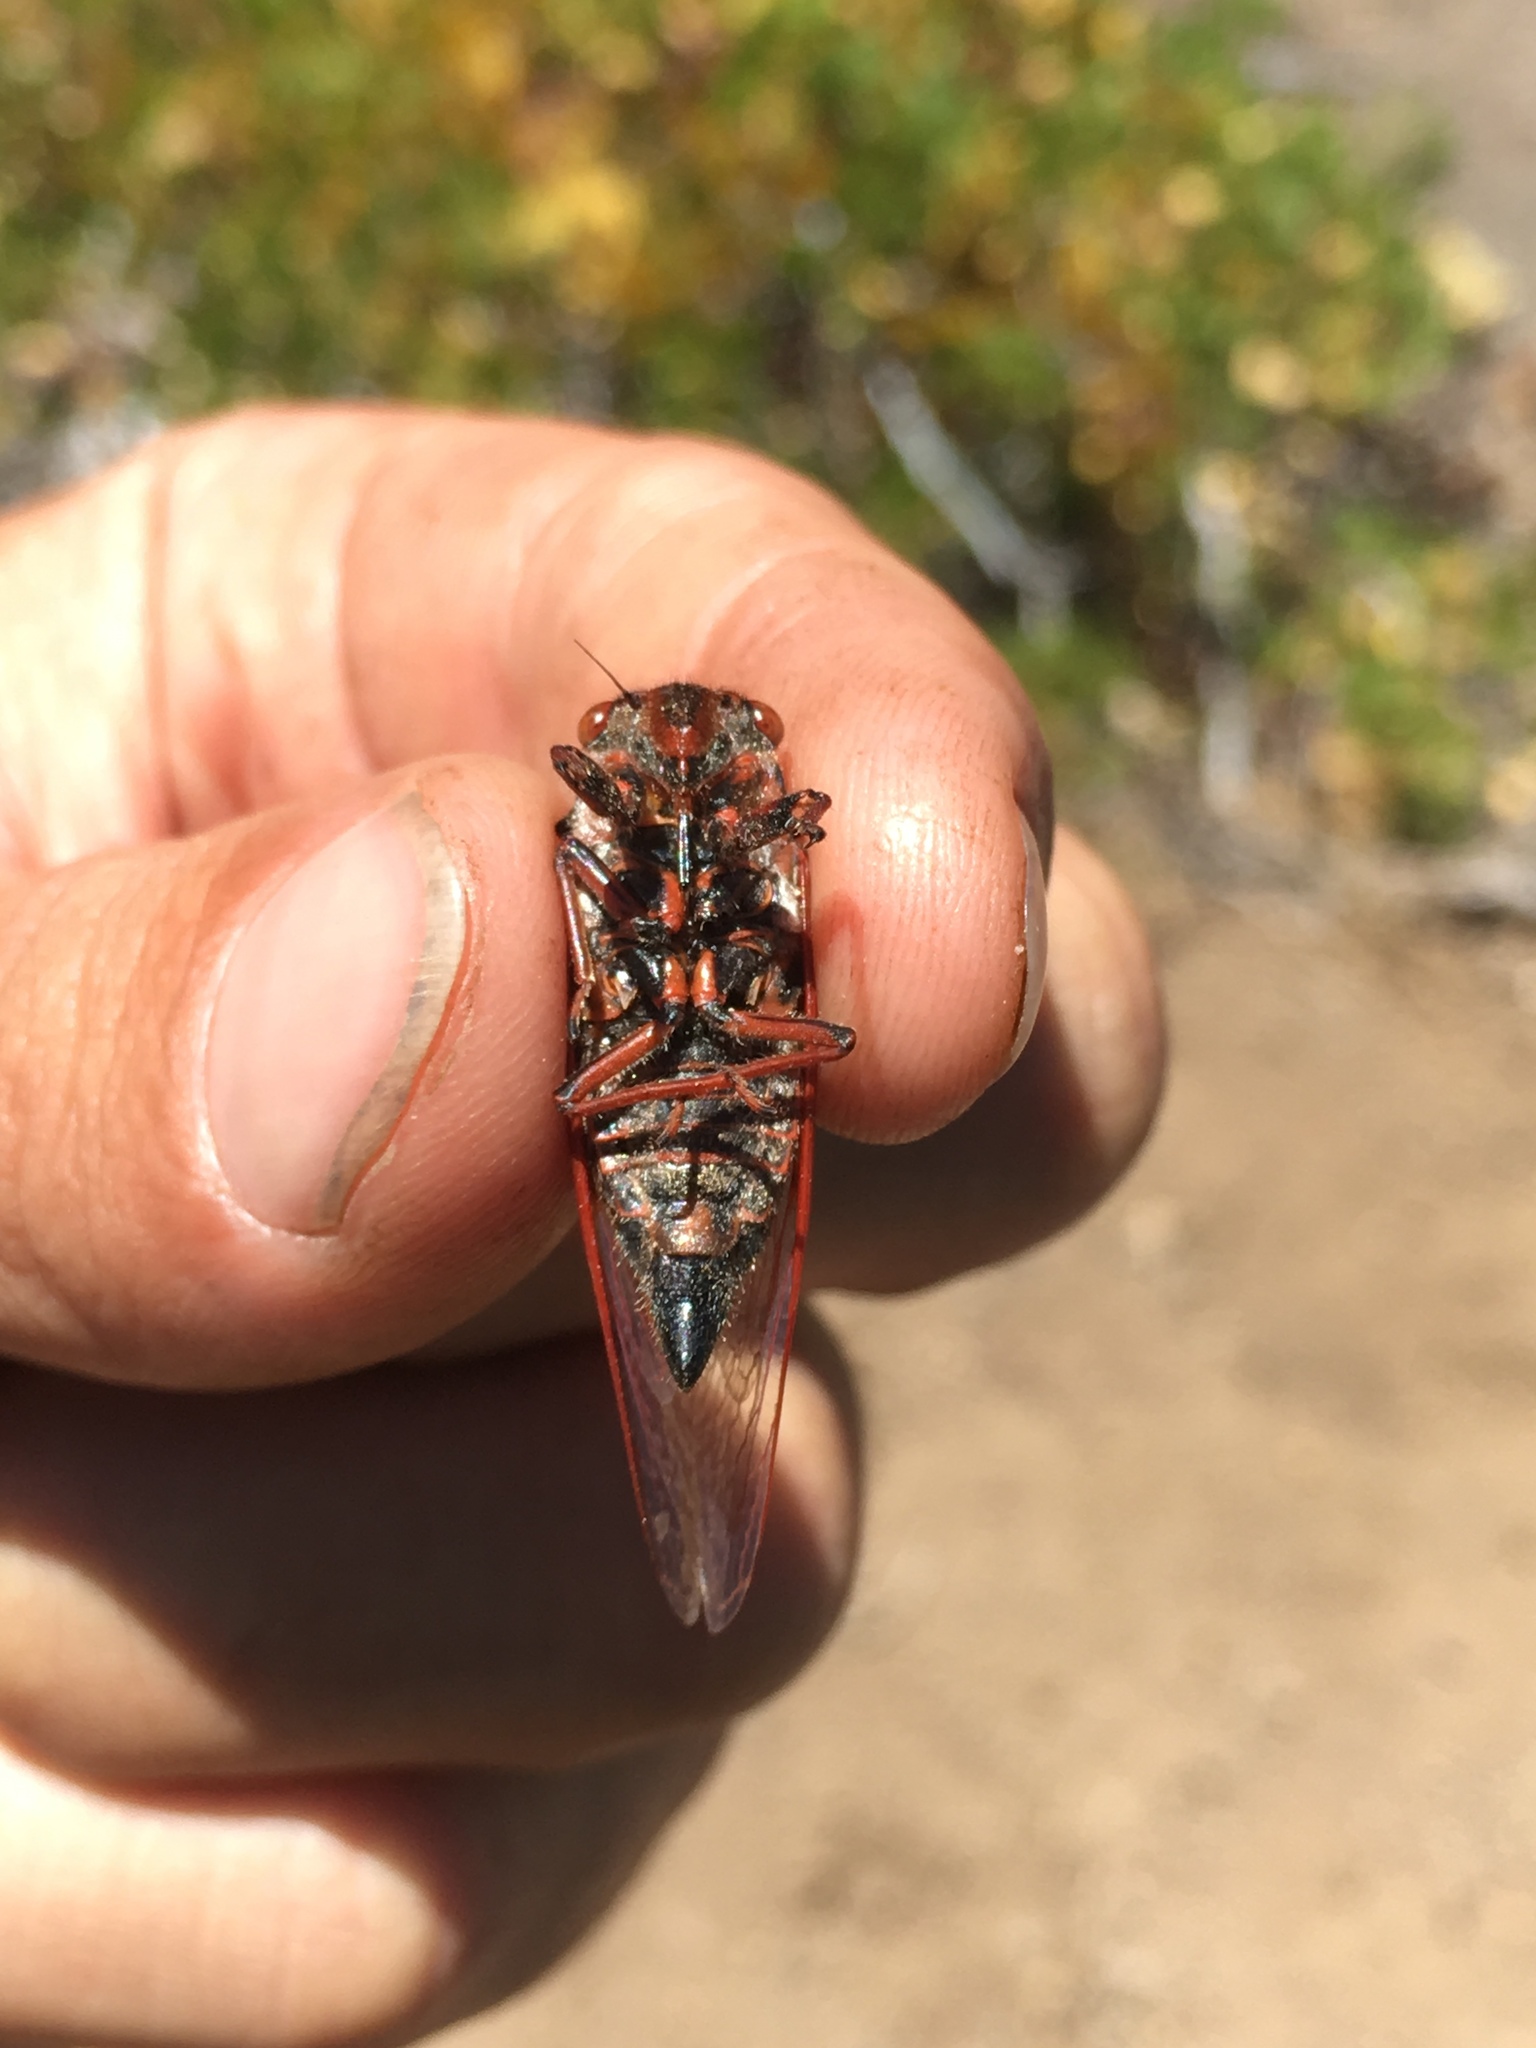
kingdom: Animalia
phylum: Arthropoda
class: Insecta
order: Hemiptera
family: Cicadidae
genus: Tibicinoides
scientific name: Tibicinoides
